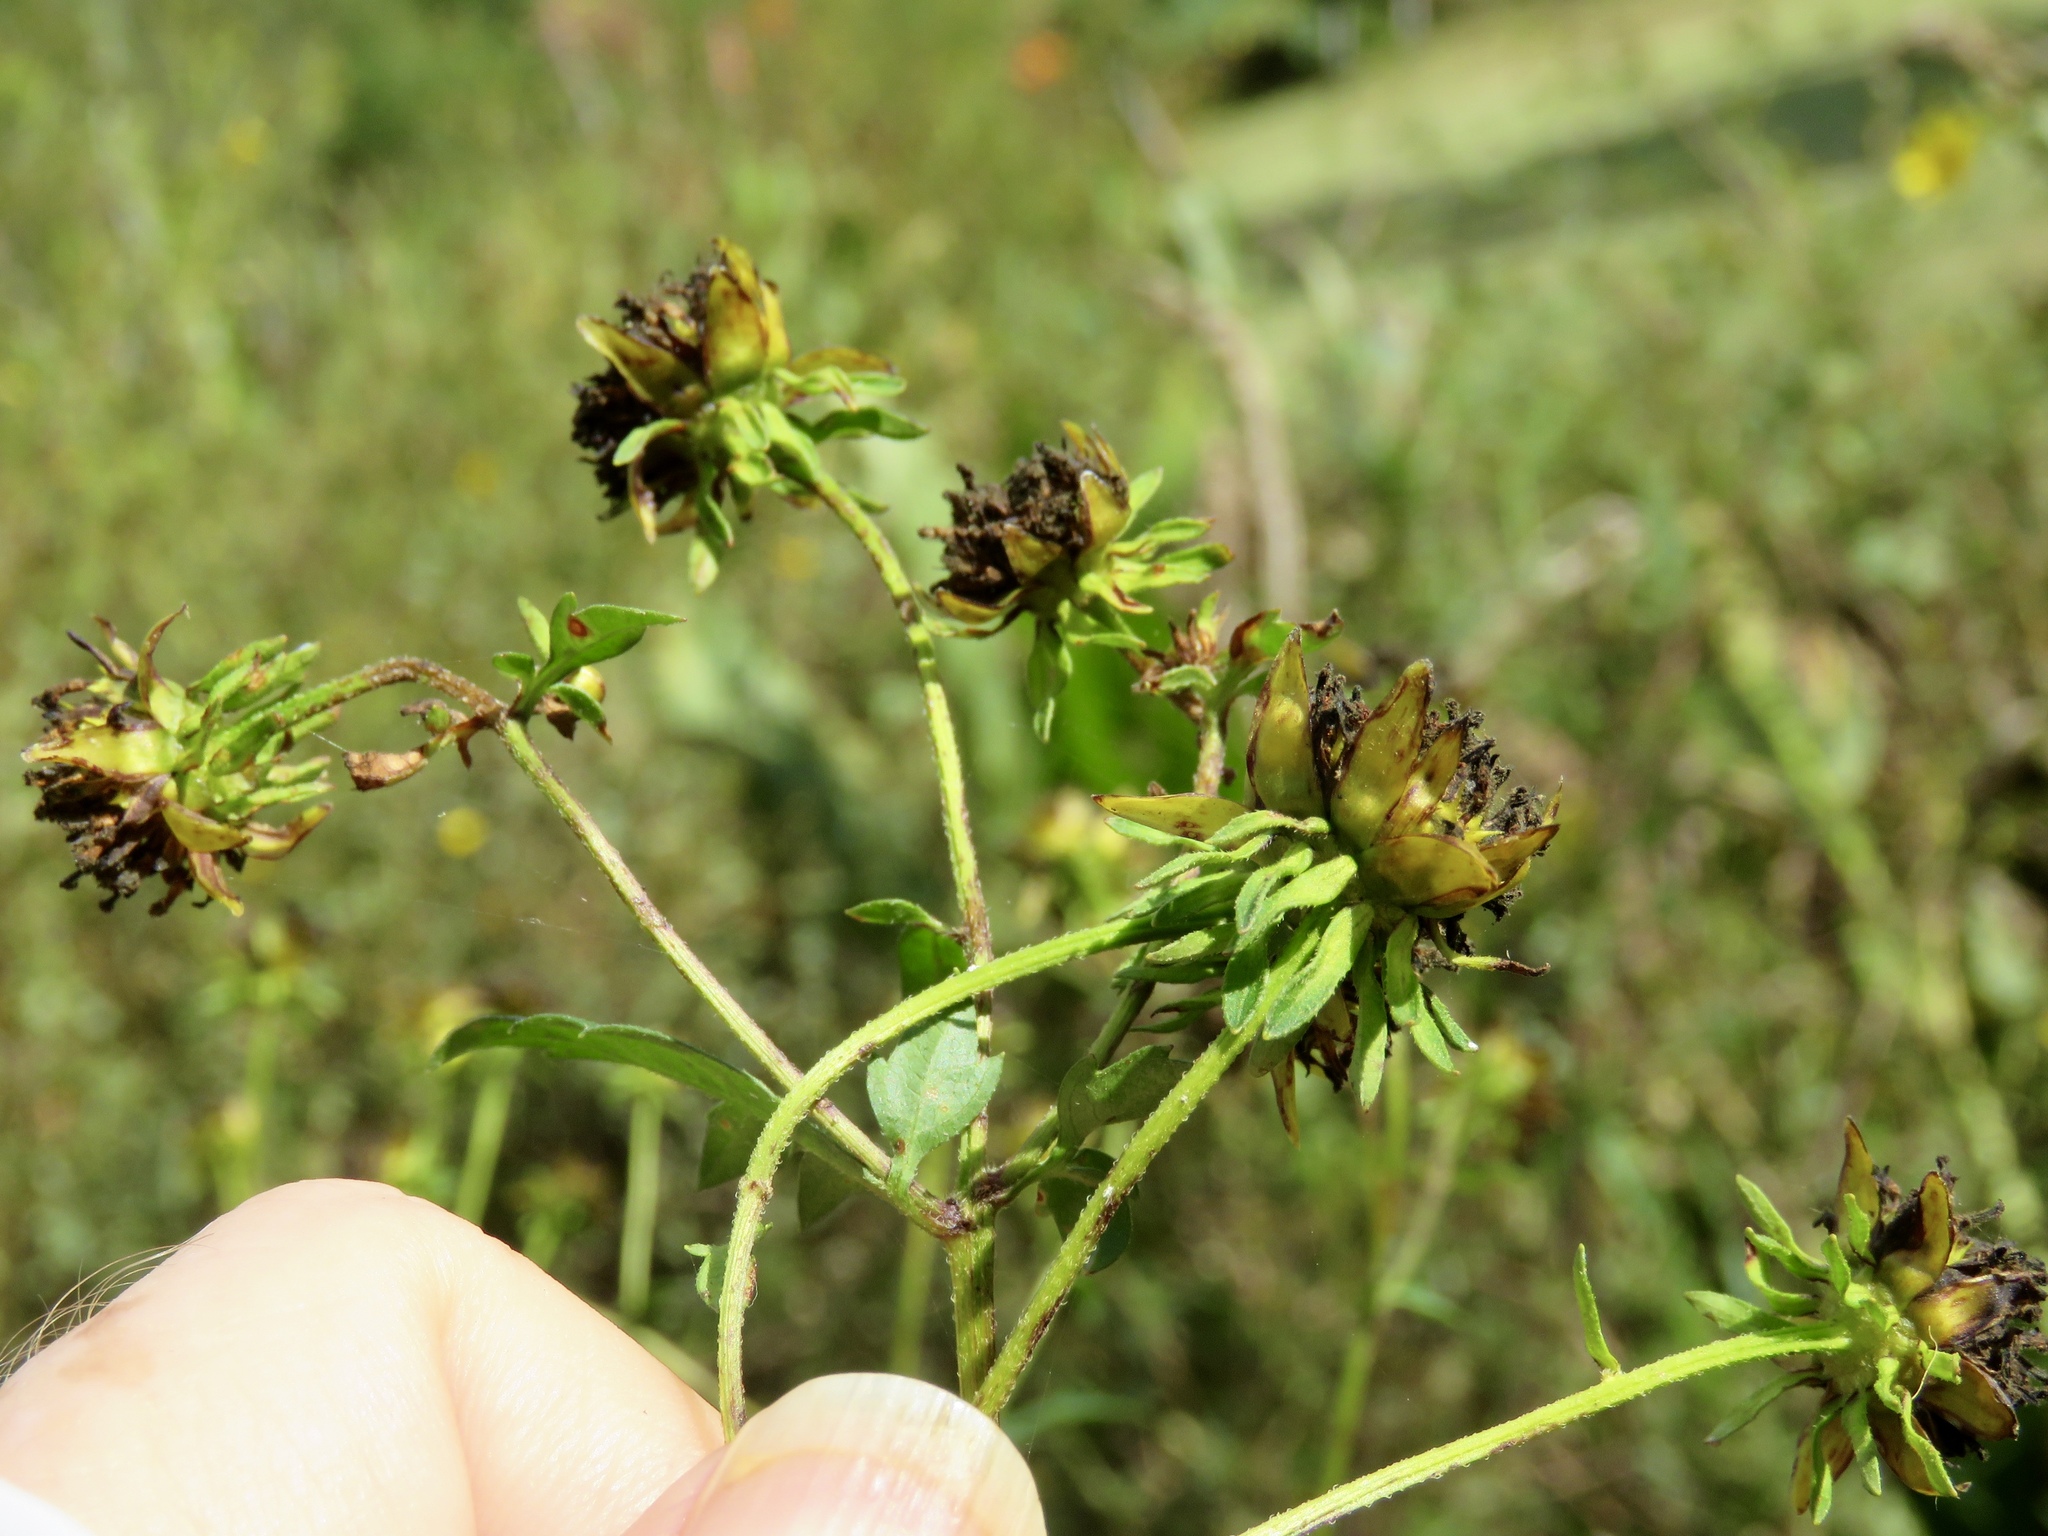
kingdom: Plantae
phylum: Tracheophyta
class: Magnoliopsida
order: Asterales
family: Asteraceae
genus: Bidens
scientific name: Bidens aristosa
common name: Western tickseed
